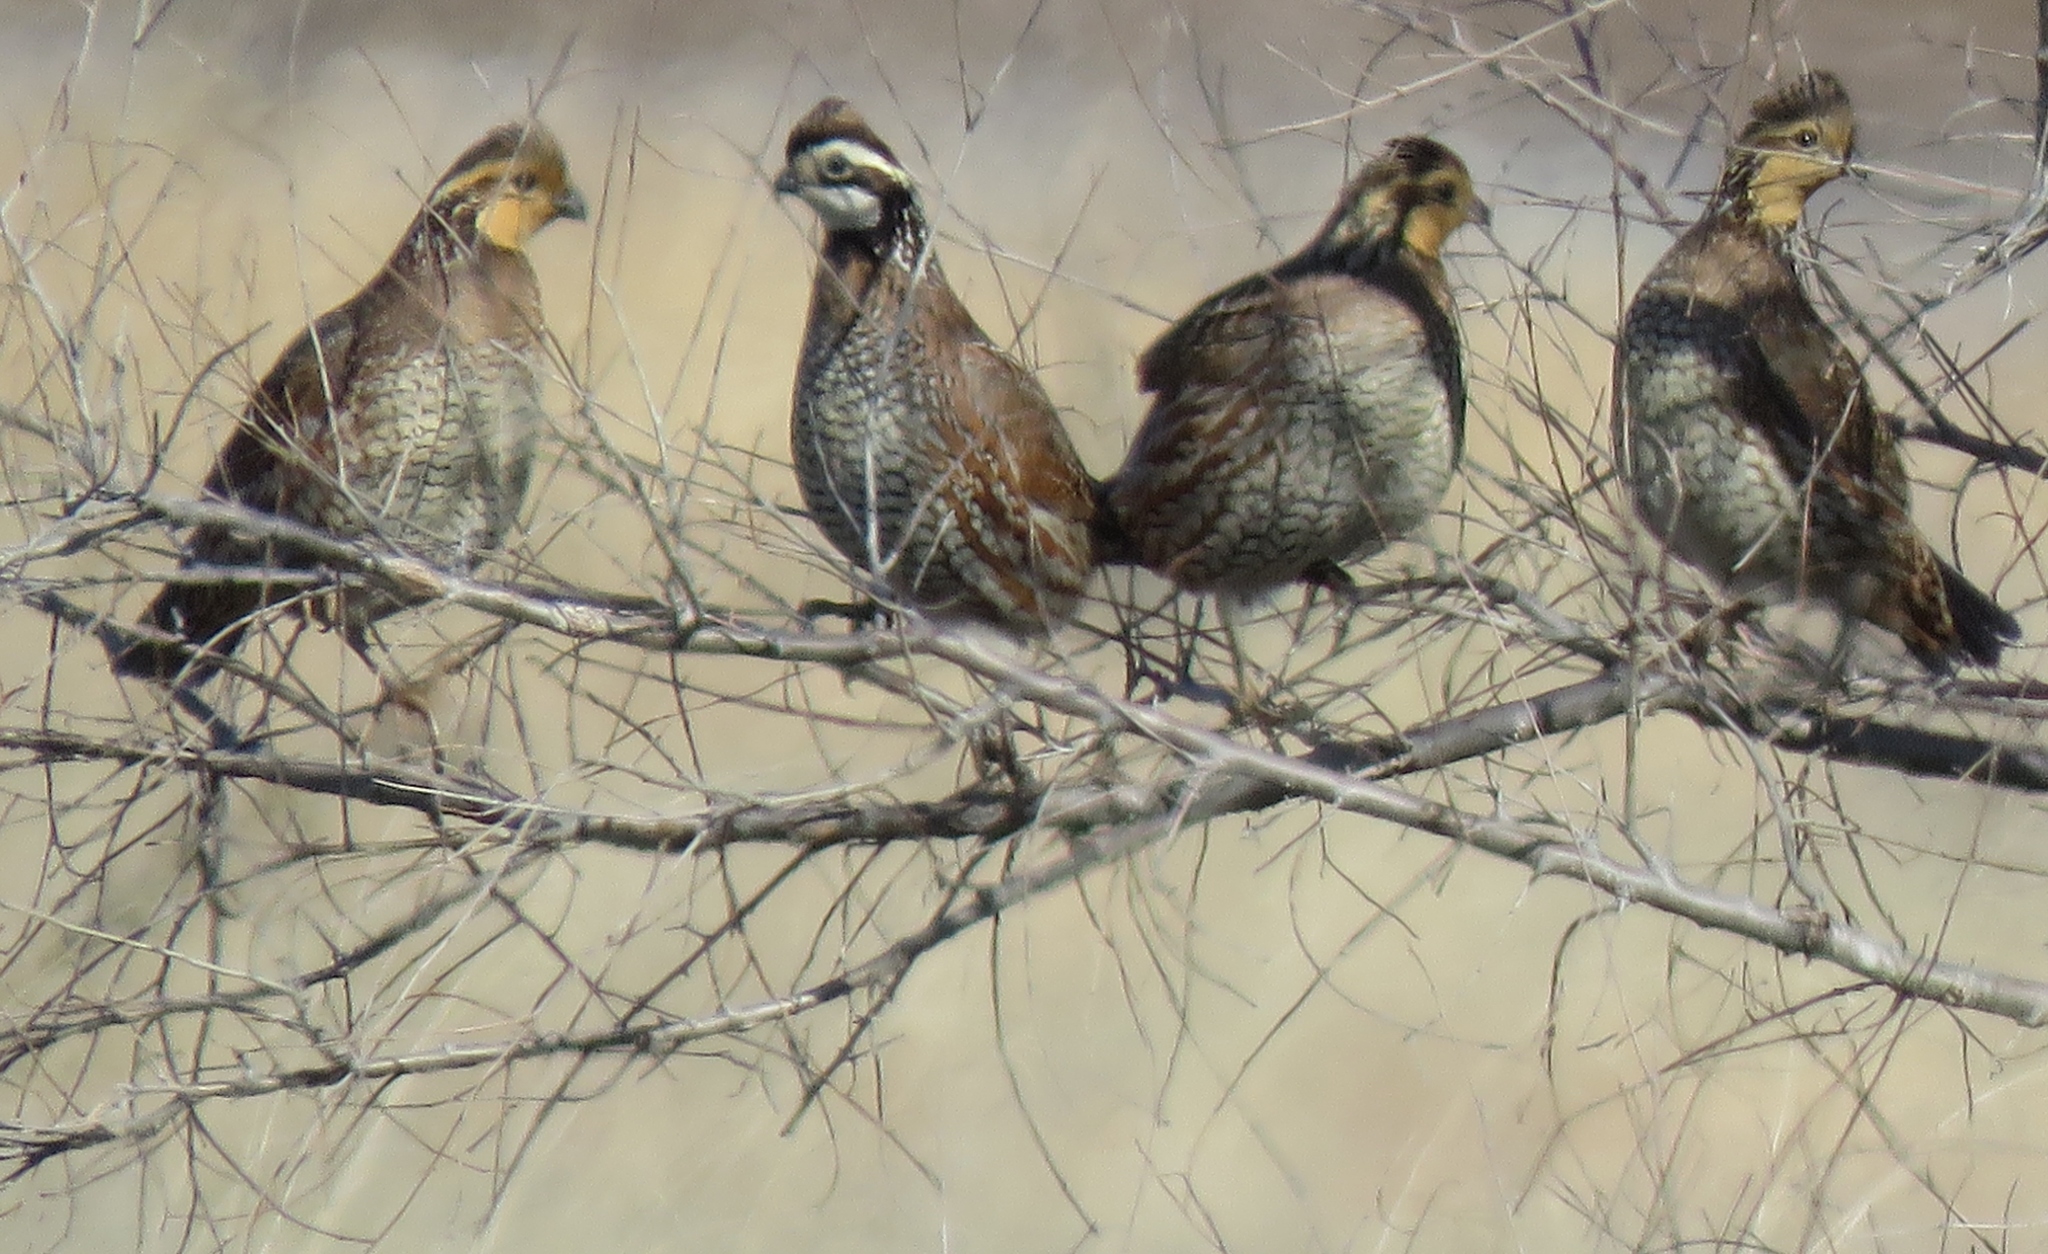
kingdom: Animalia
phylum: Chordata
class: Aves
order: Galliformes
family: Odontophoridae
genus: Colinus
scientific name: Colinus virginianus
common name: Northern bobwhite
